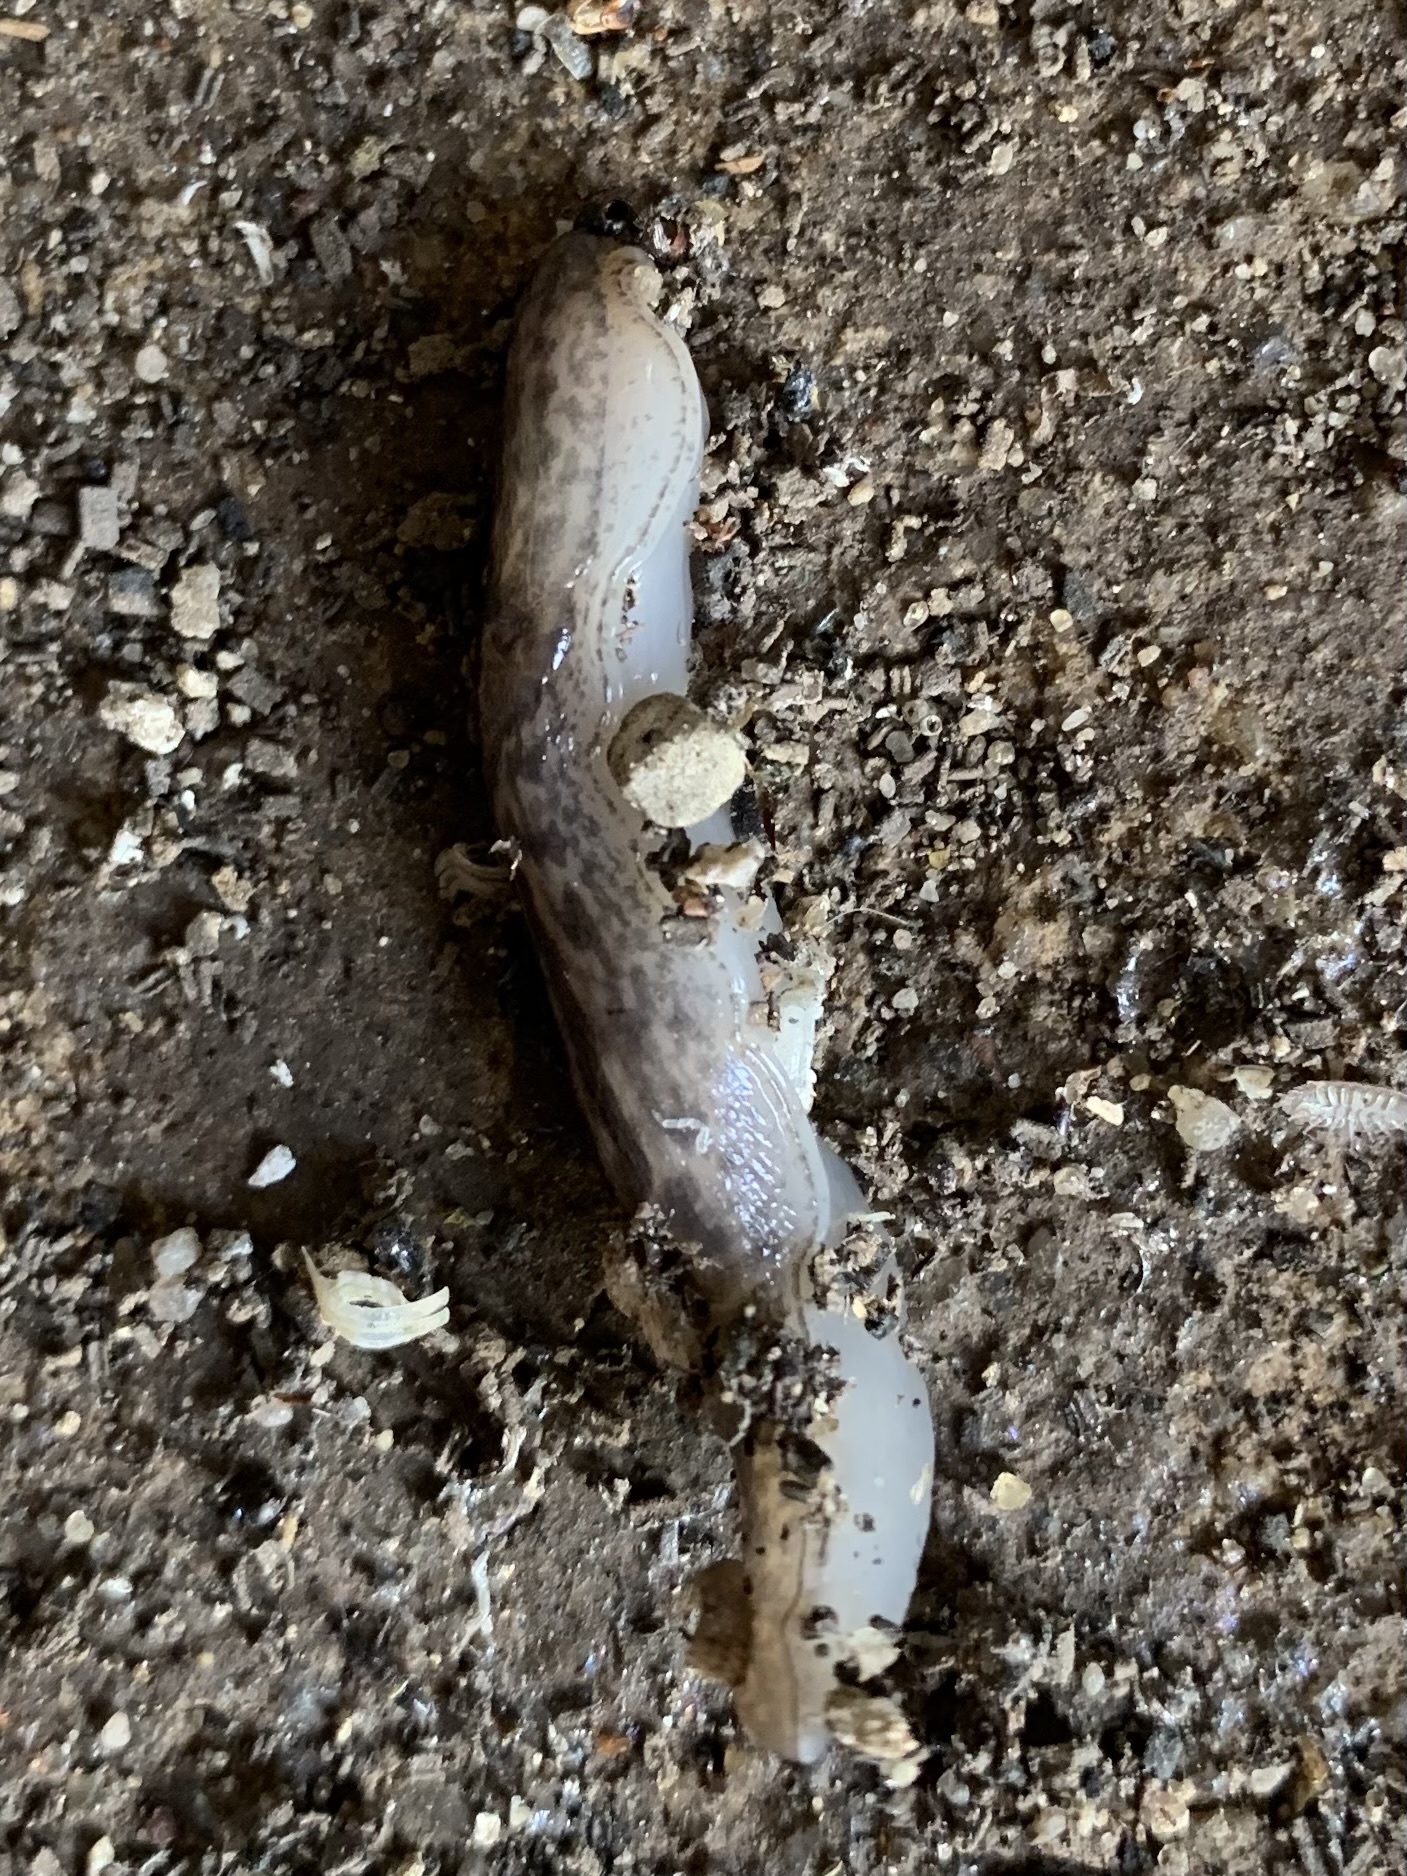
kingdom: Animalia
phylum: Mollusca
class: Gastropoda
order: Stylommatophora
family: Limacidae
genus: Limax
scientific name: Limax maximus
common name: Great grey slug
